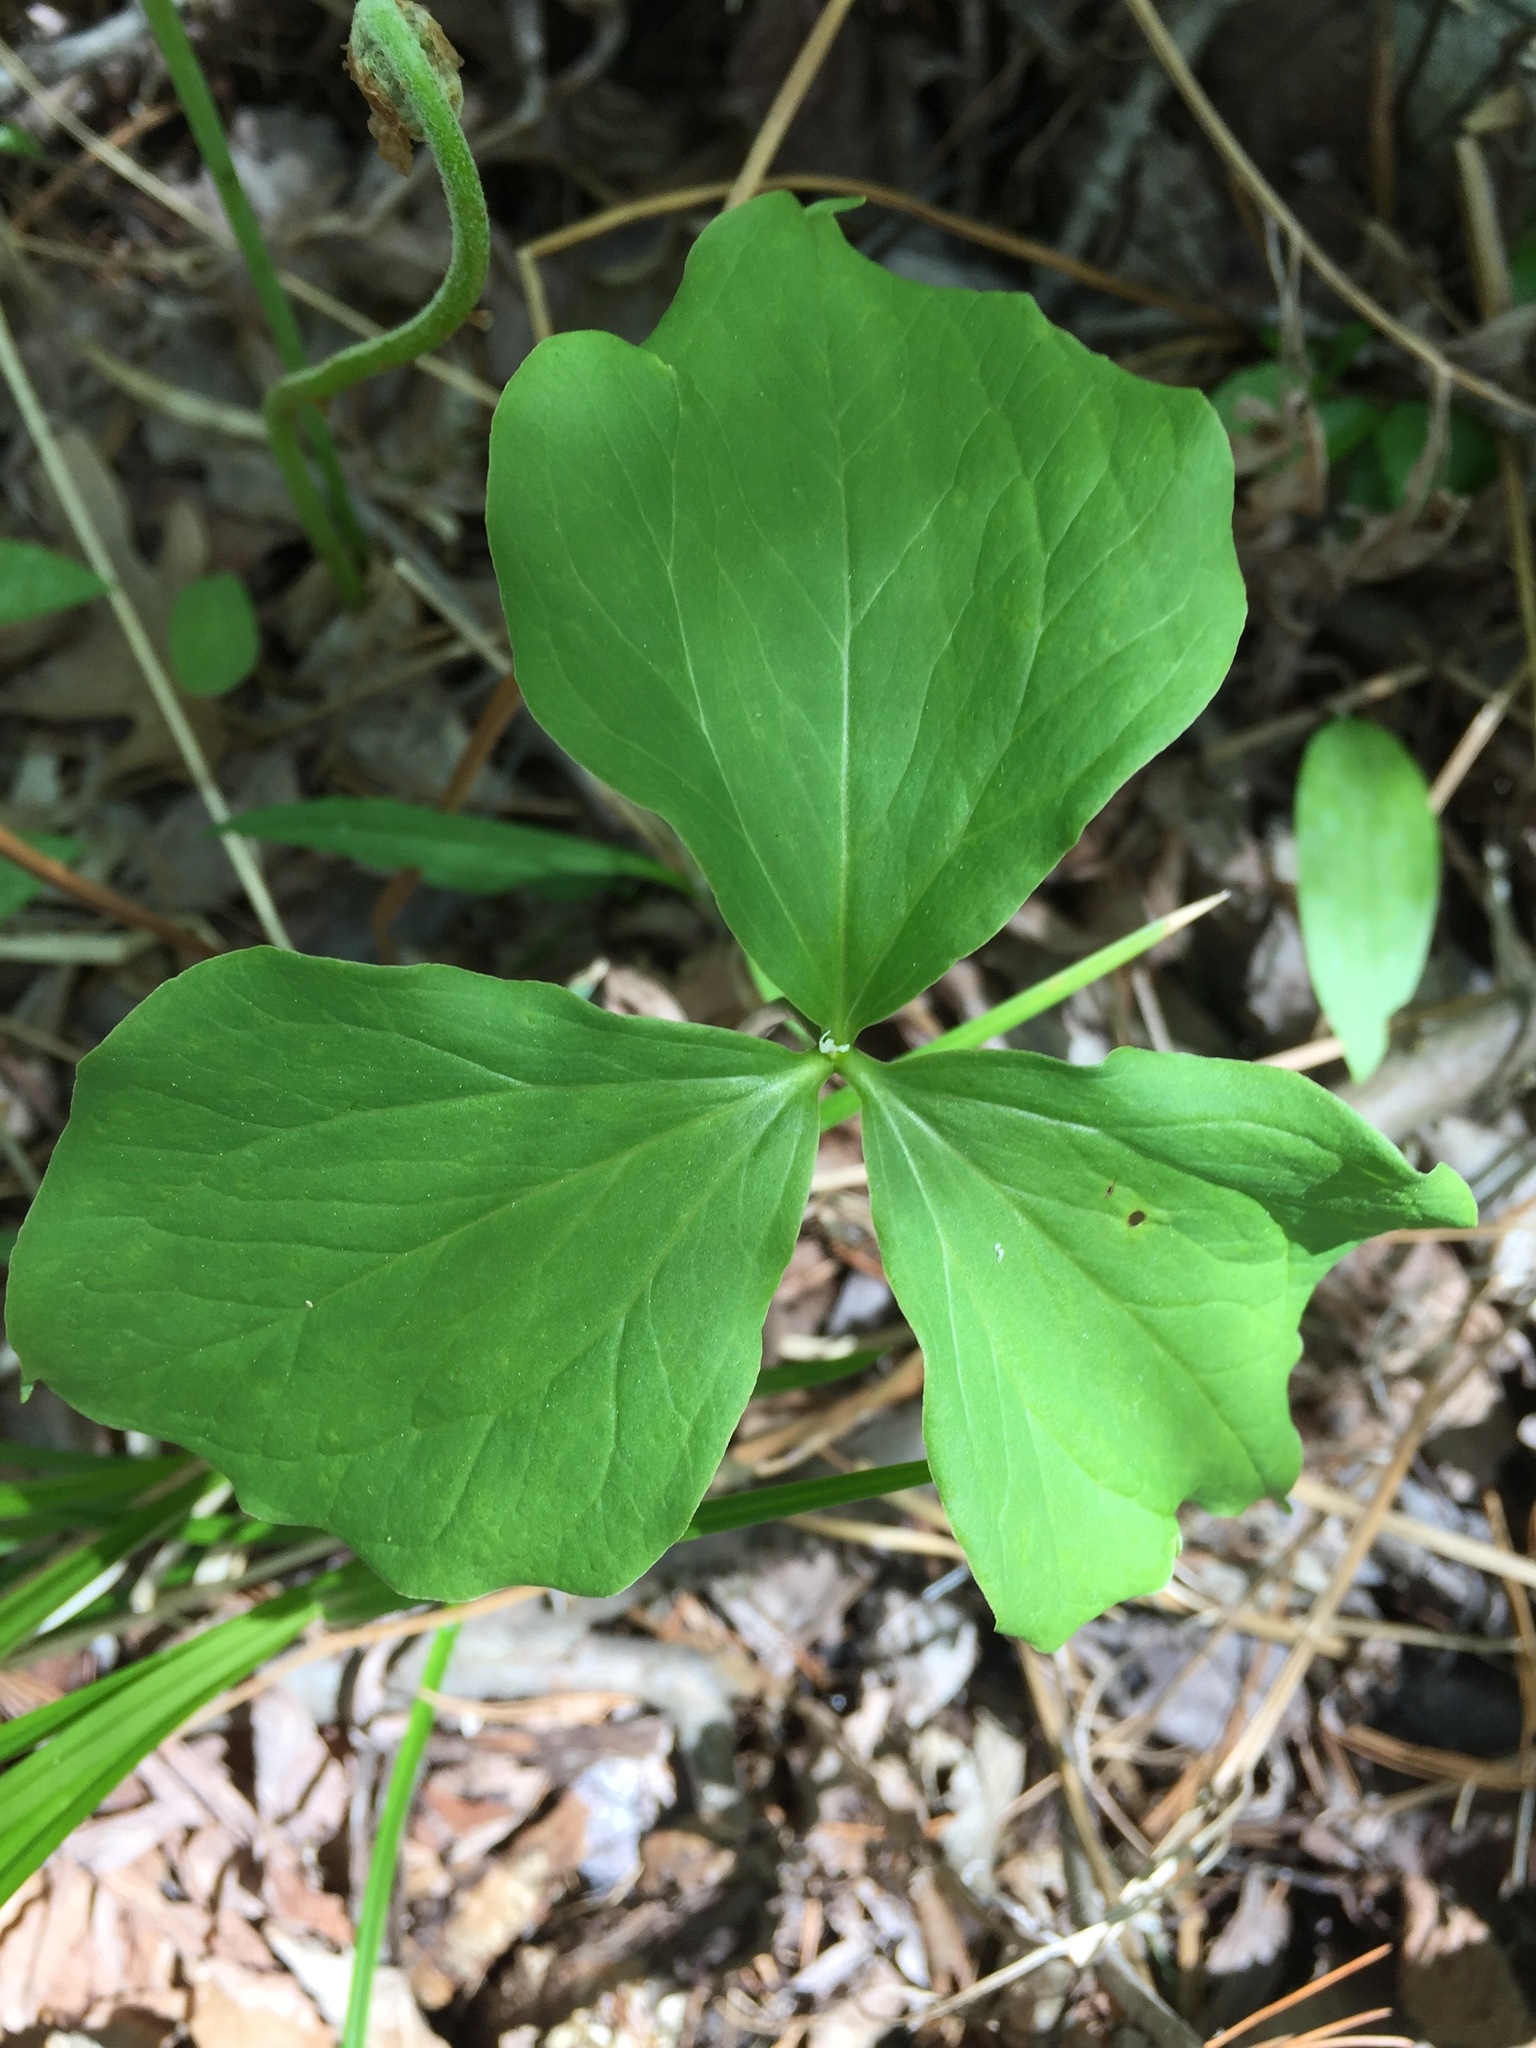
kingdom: Plantae
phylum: Tracheophyta
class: Liliopsida
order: Liliales
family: Melanthiaceae
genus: Trillium
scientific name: Trillium cernuum
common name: Nodding trillium
